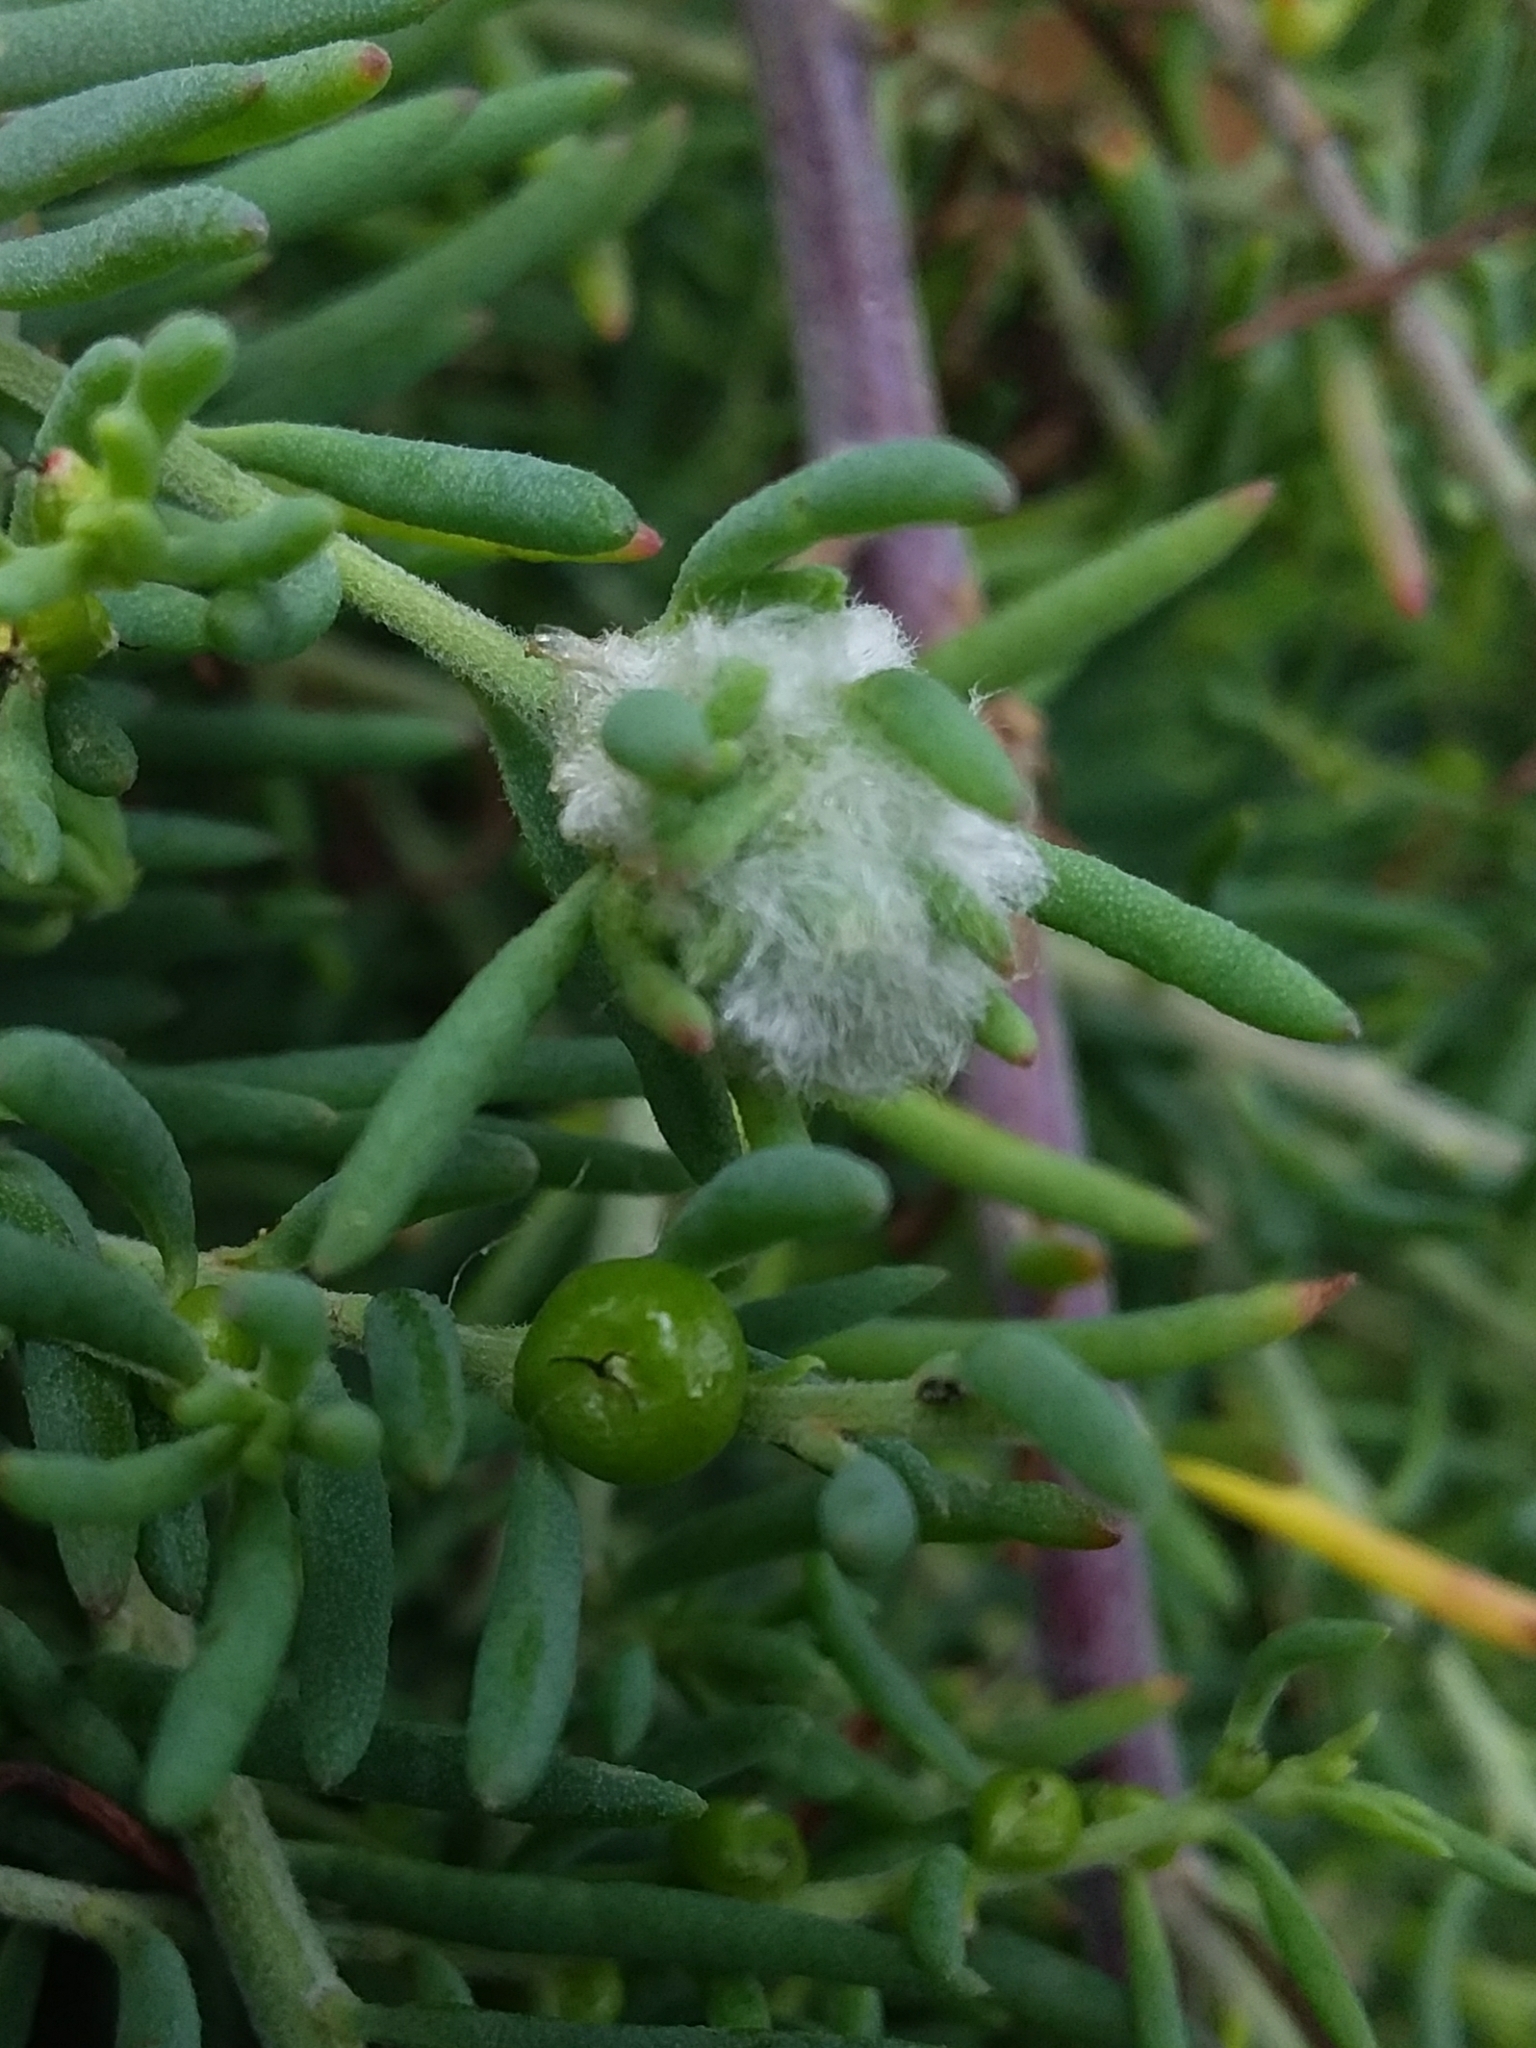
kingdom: Animalia
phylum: Arthropoda
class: Insecta
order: Diptera
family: Cecidomyiidae
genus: Asphondylia
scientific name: Asphondylia tonsura
